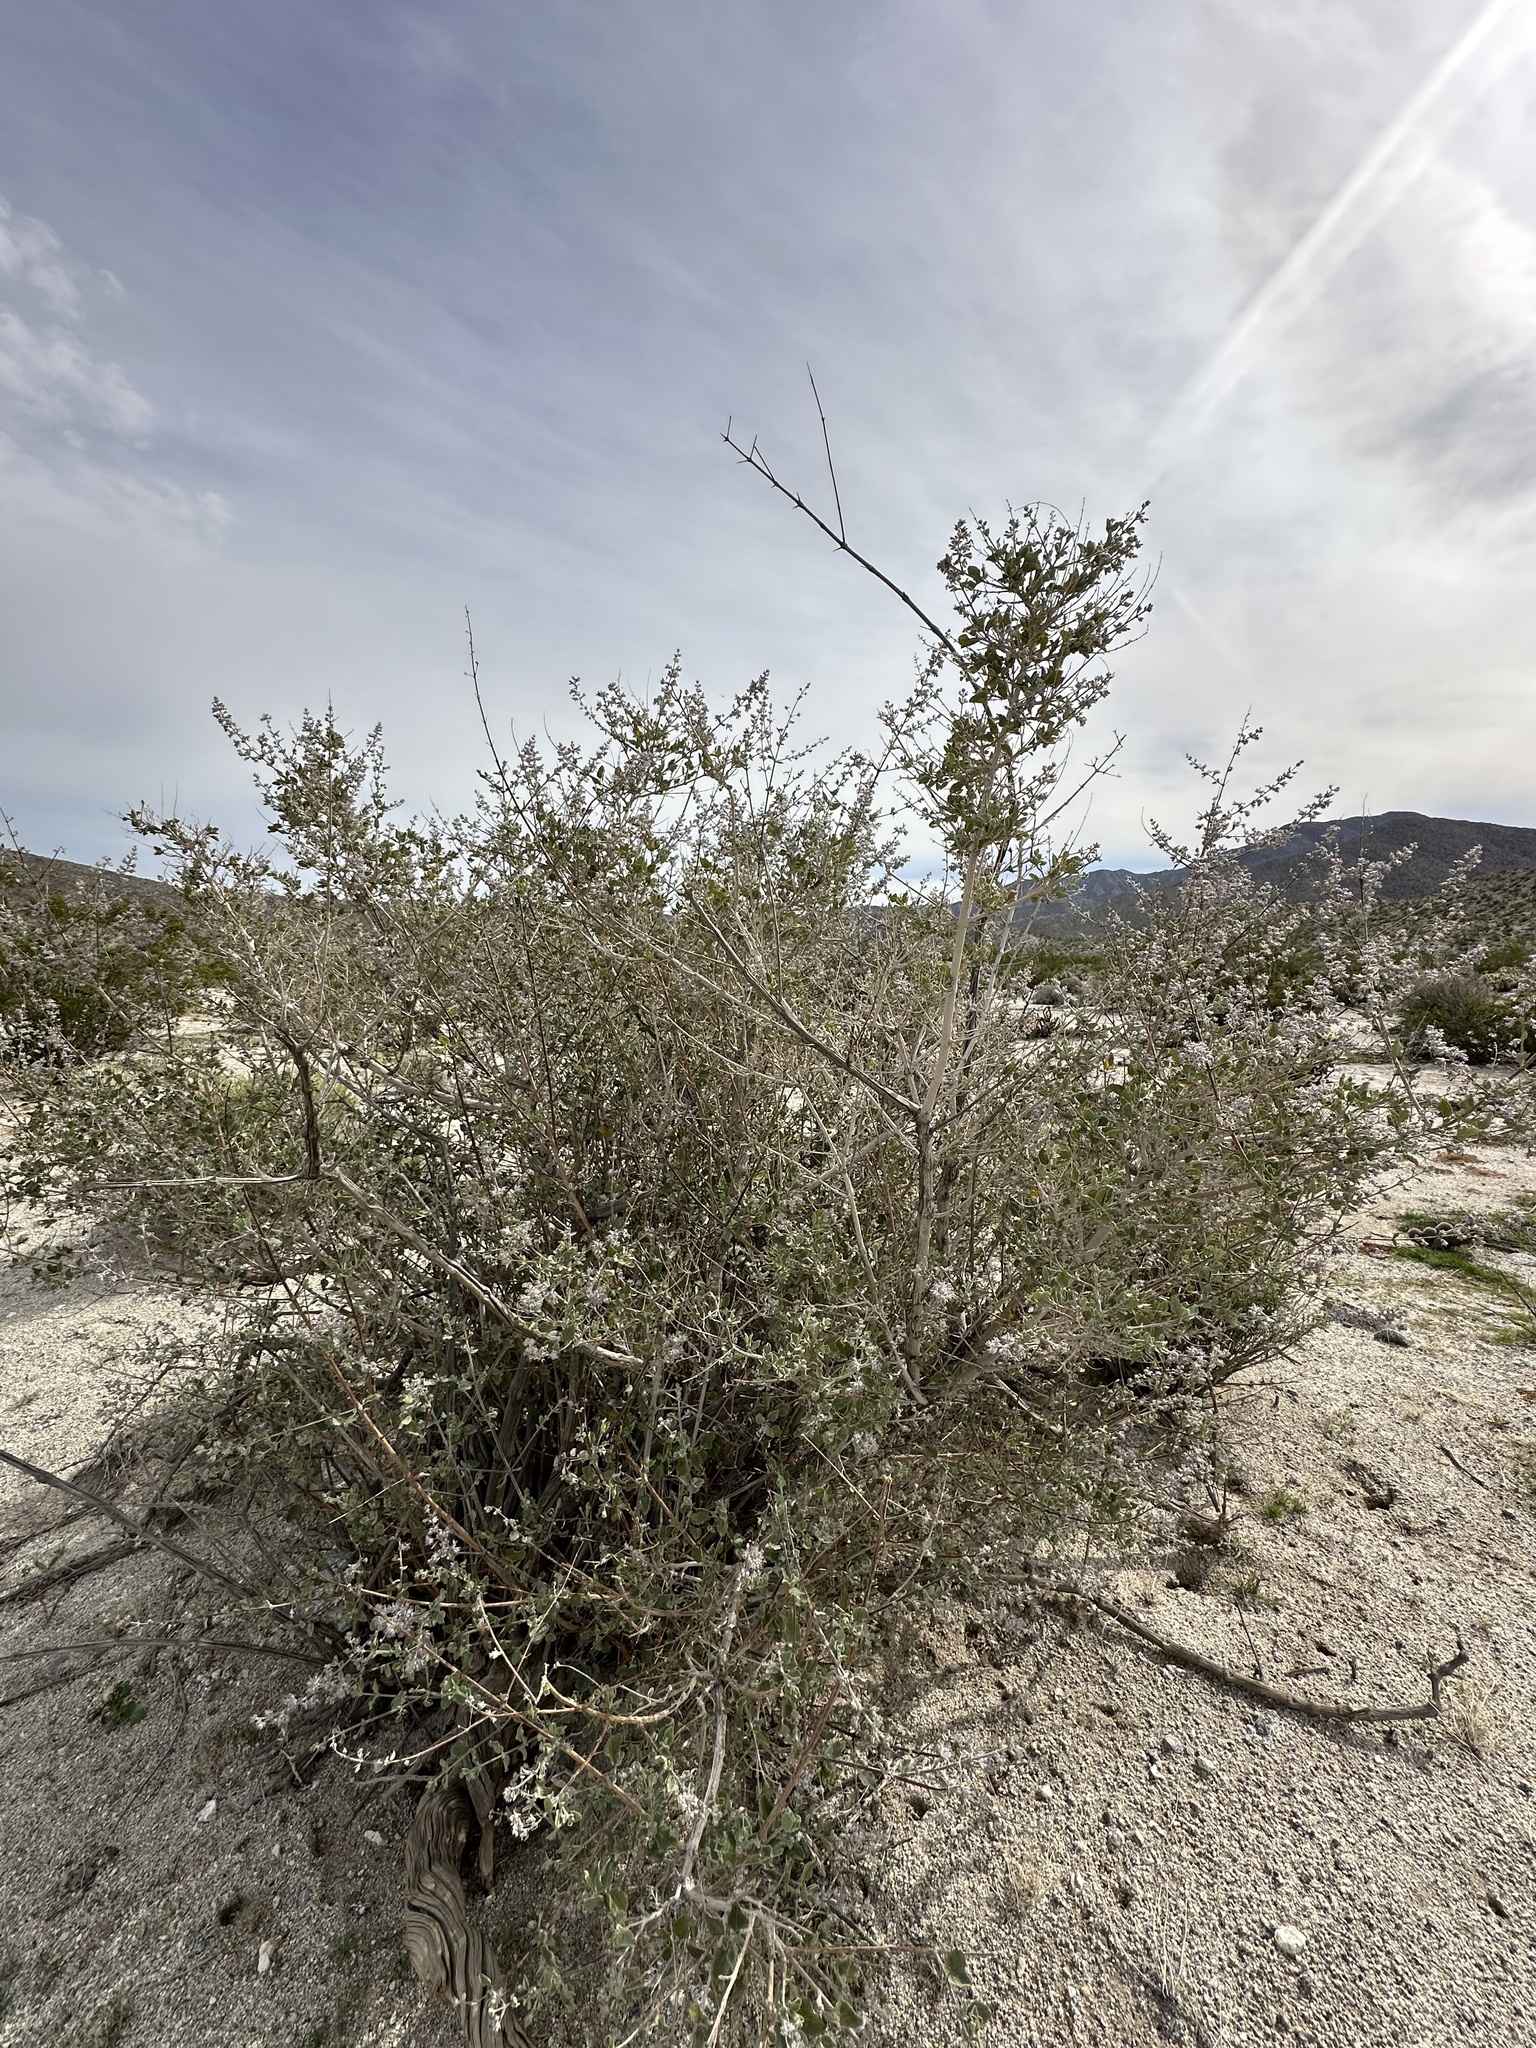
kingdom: Plantae
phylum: Tracheophyta
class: Magnoliopsida
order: Lamiales
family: Lamiaceae
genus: Condea
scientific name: Condea emoryi
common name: Chia
